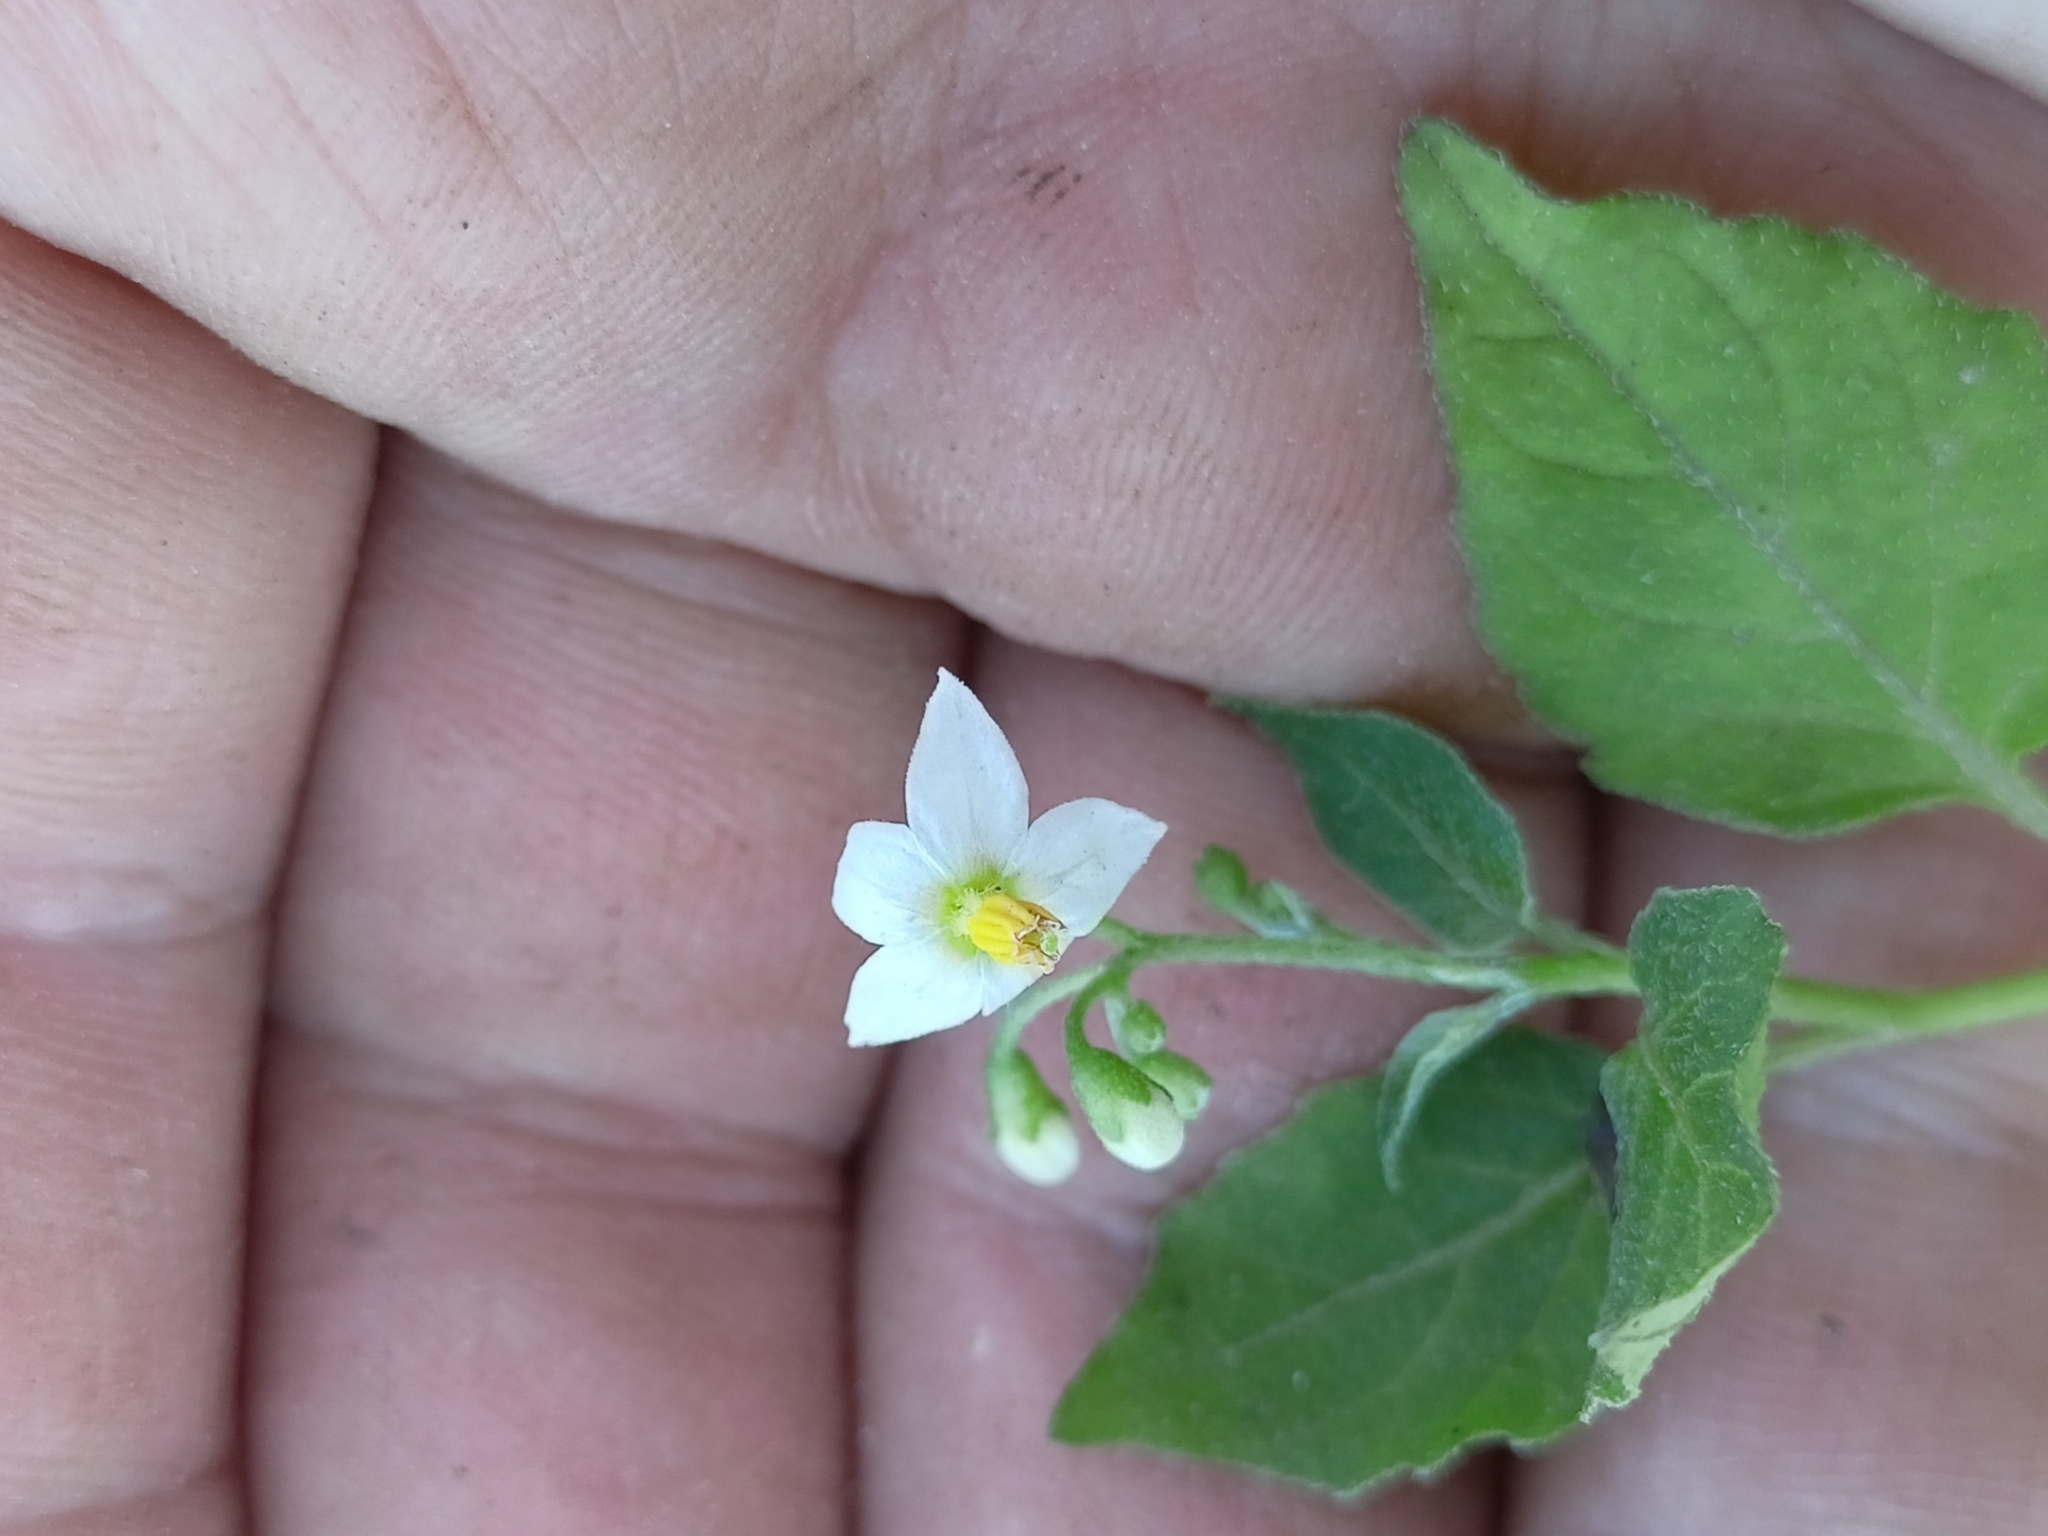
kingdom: Plantae
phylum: Tracheophyta
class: Magnoliopsida
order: Solanales
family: Solanaceae
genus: Solanum
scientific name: Solanum nigrum
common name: Black nightshade
